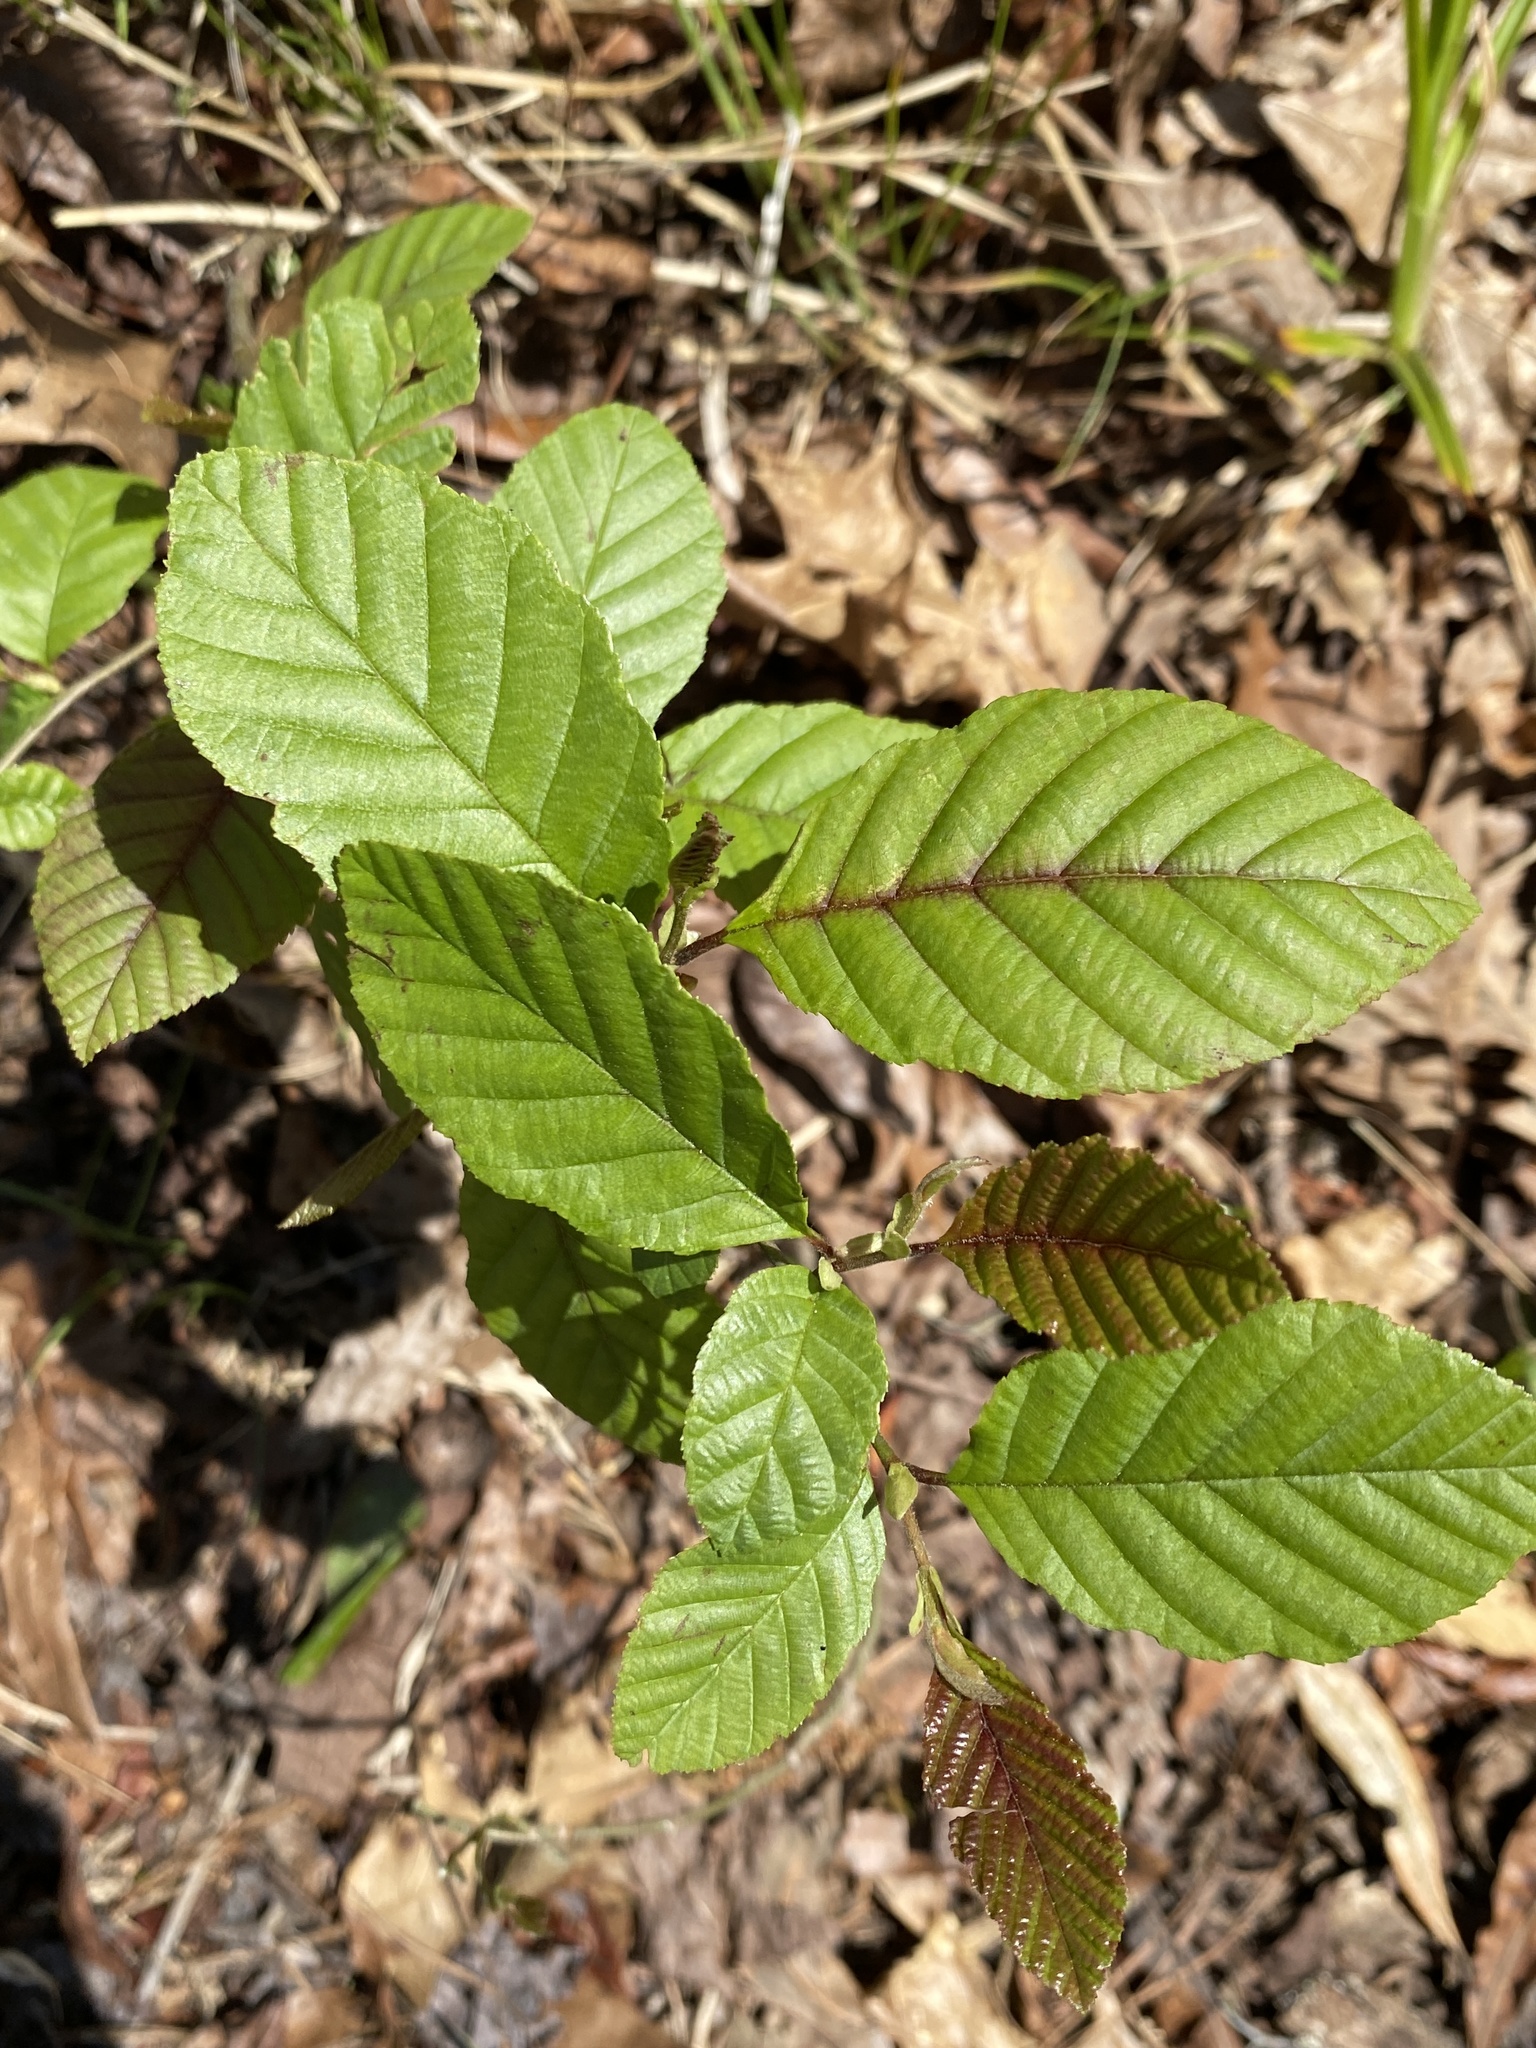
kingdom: Plantae
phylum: Tracheophyta
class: Magnoliopsida
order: Fagales
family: Betulaceae
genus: Alnus
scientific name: Alnus serrulata
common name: Hazel alder
